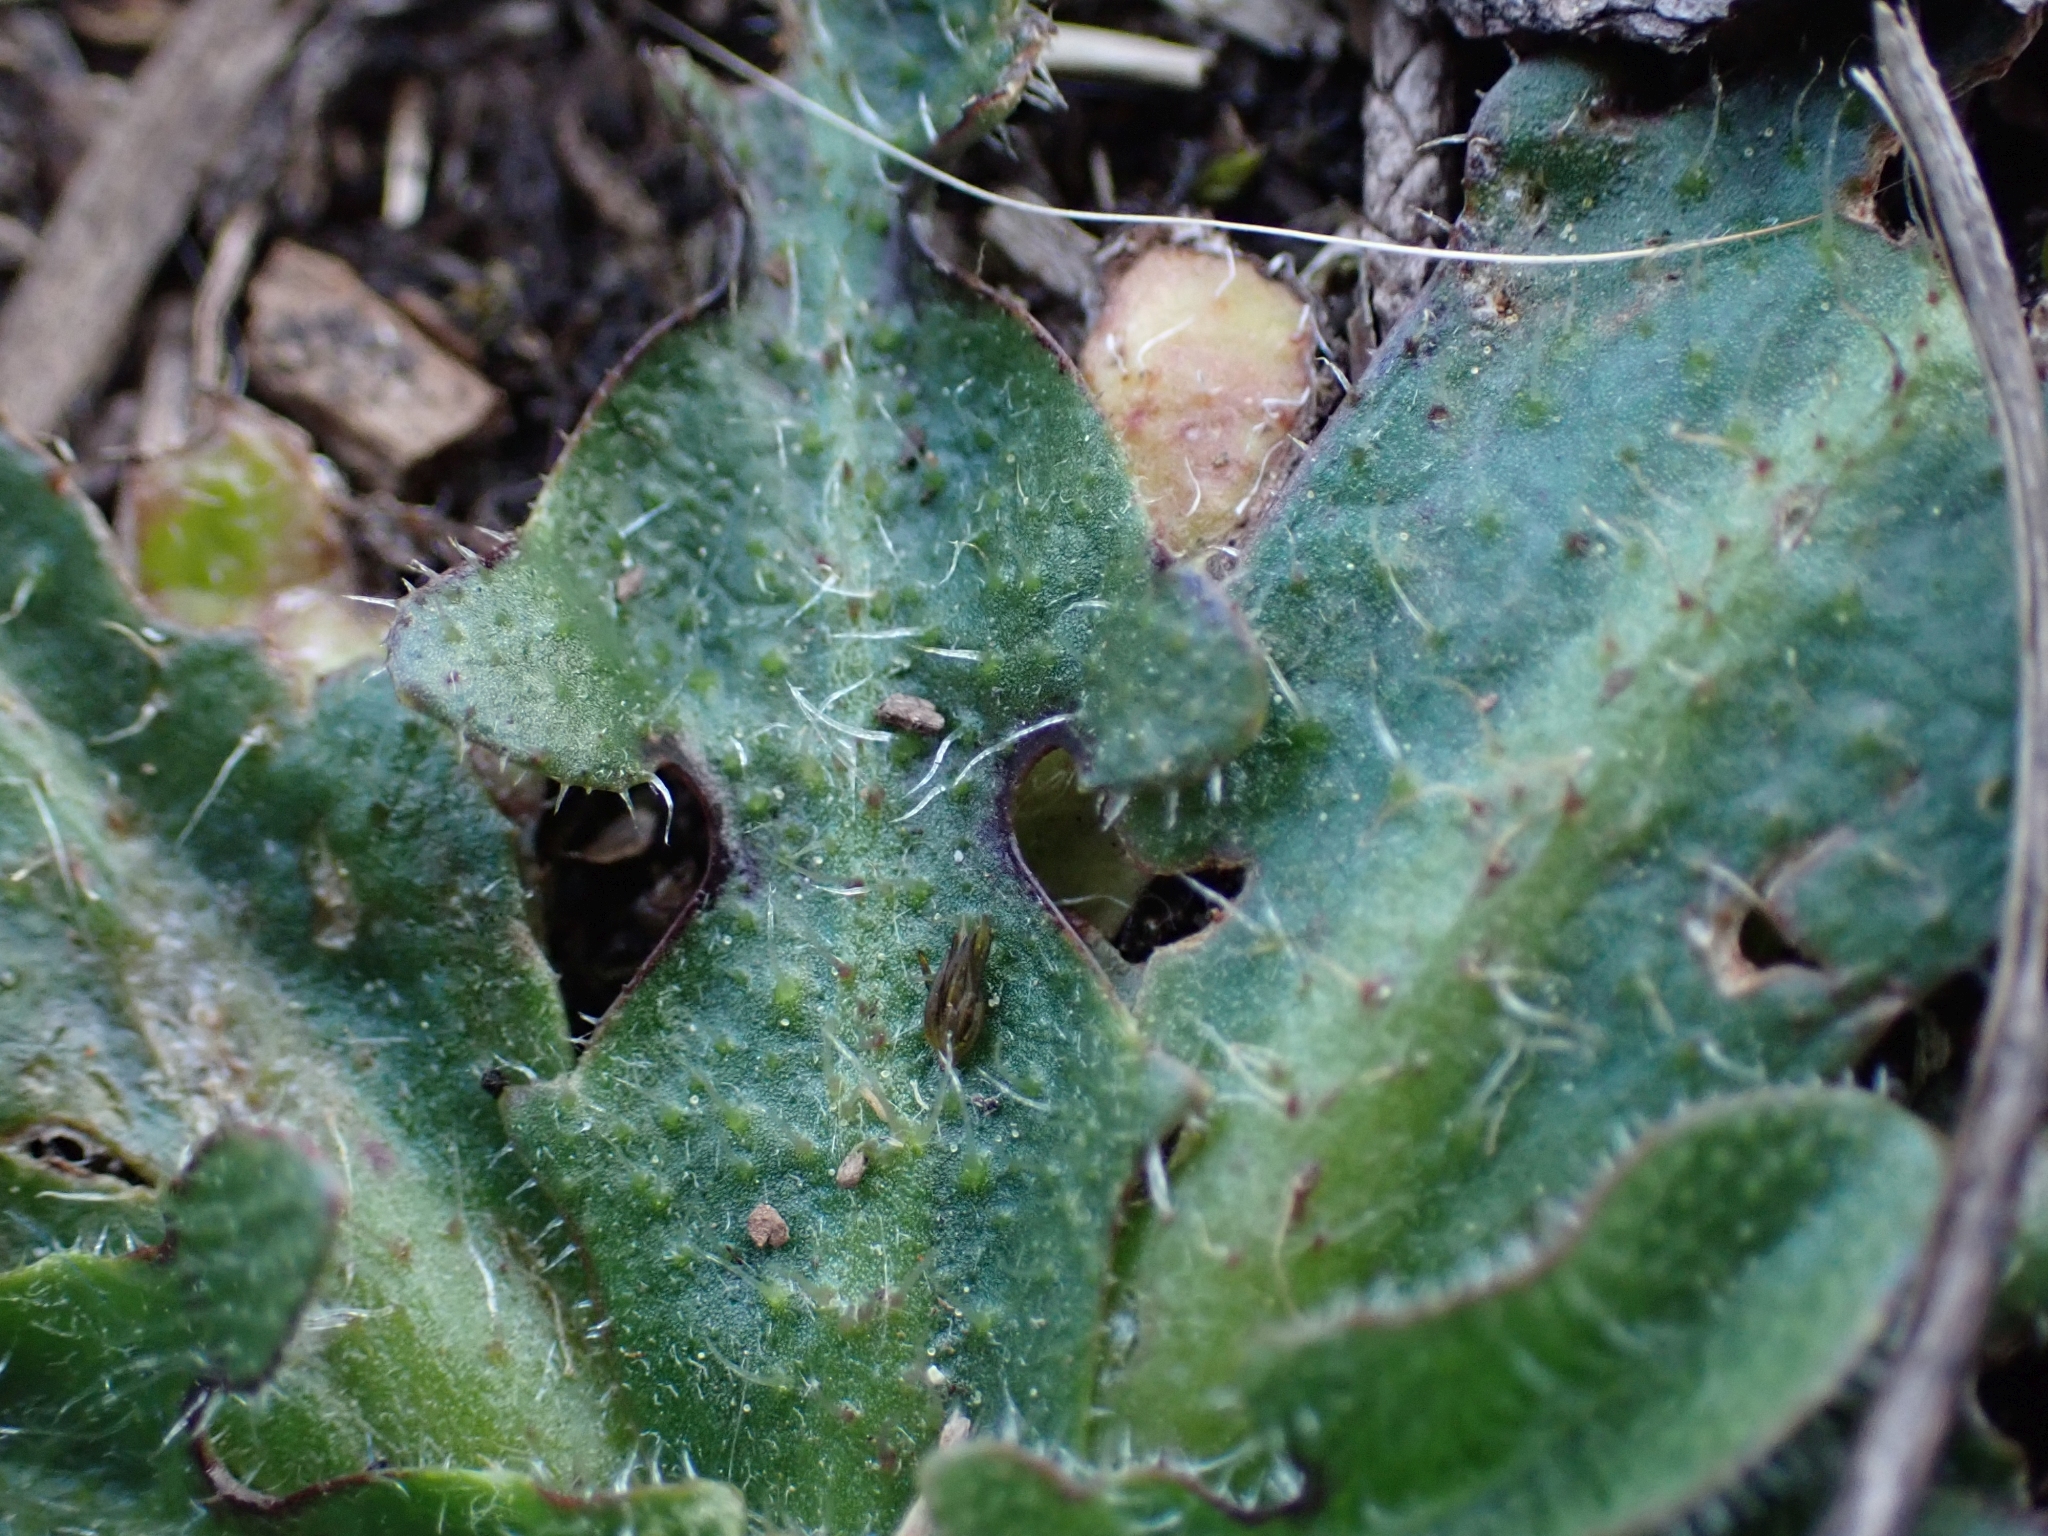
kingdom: Plantae
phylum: Tracheophyta
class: Magnoliopsida
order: Asterales
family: Asteraceae
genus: Hypochaeris
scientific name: Hypochaeris radicata
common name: Flatweed
